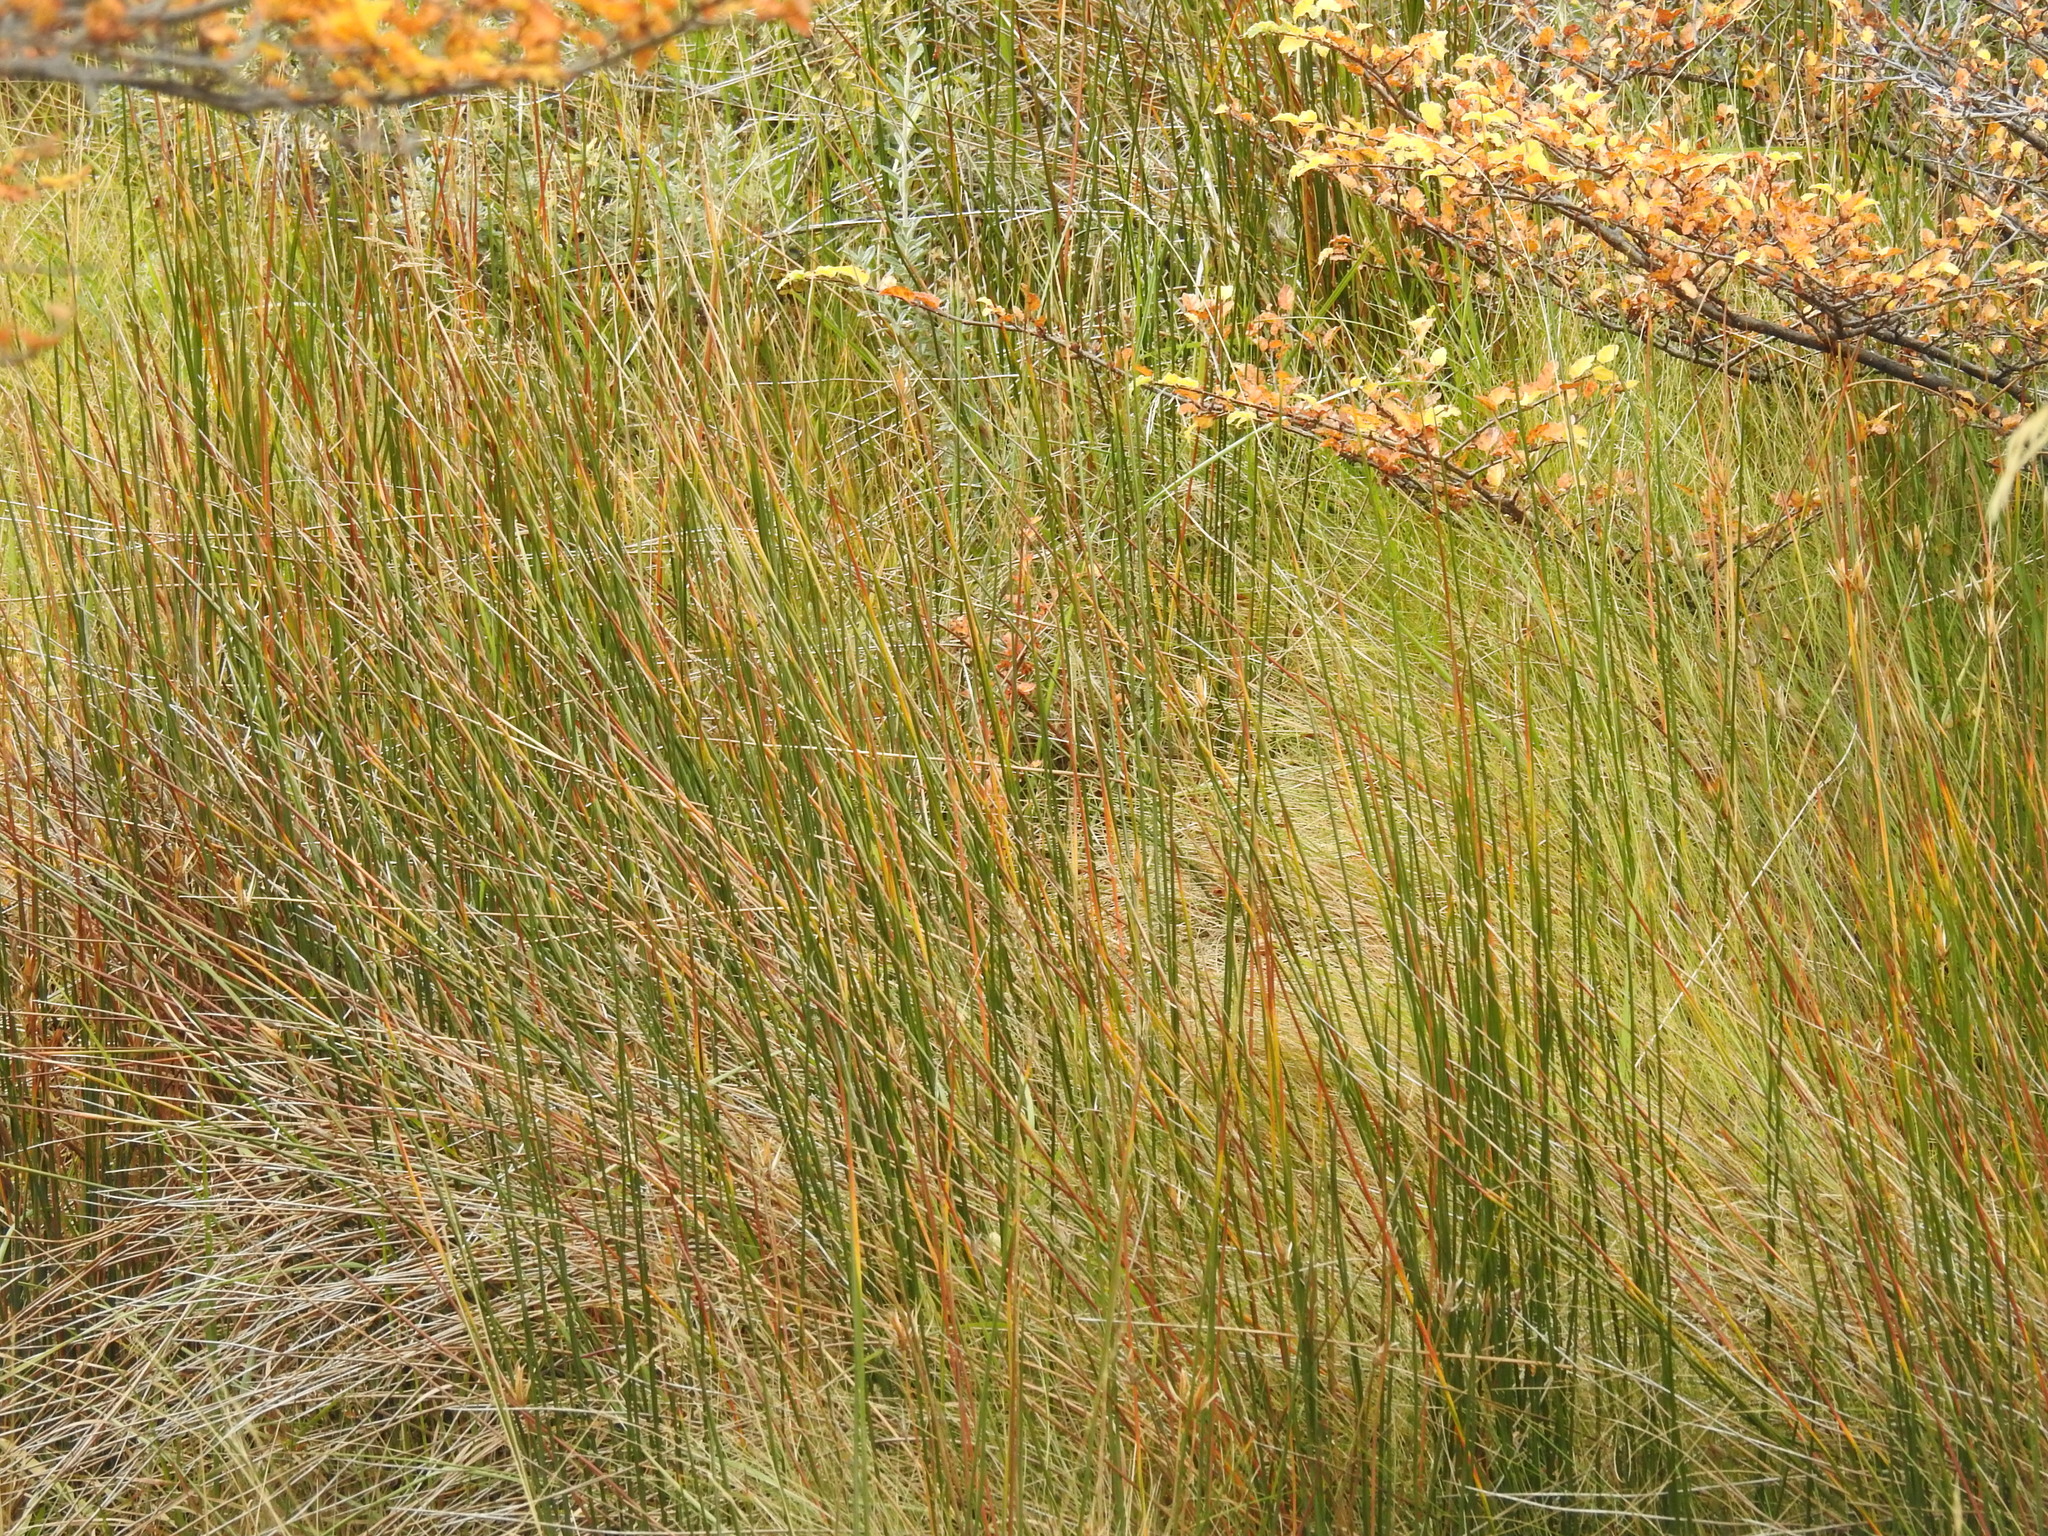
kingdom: Plantae
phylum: Tracheophyta
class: Liliopsida
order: Poales
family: Juncaceae
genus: Marsippospermum
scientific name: Marsippospermum grandiflorum
